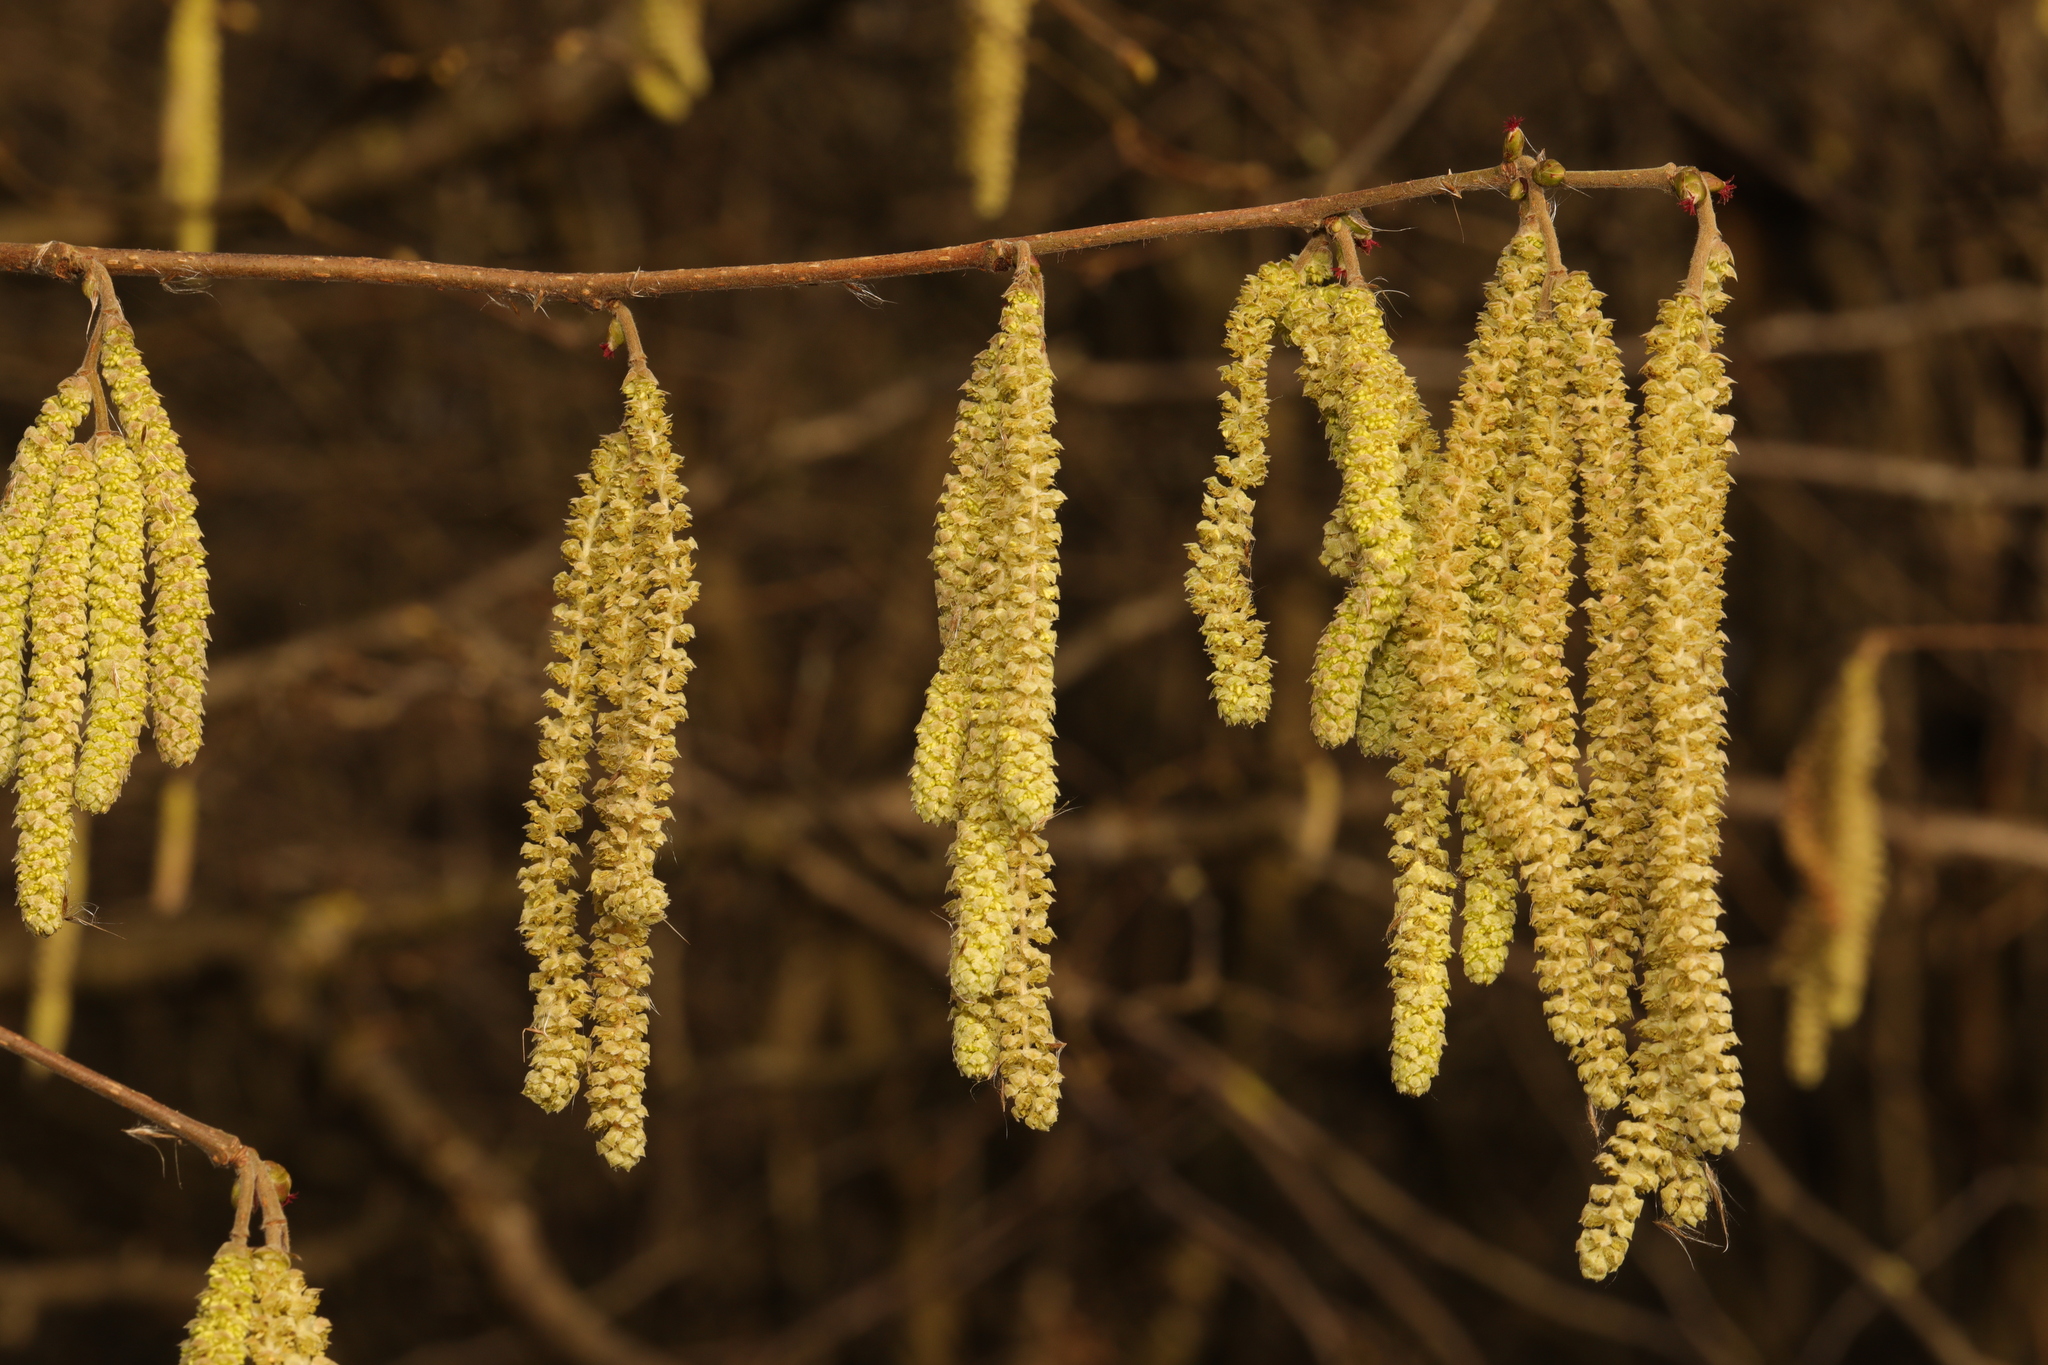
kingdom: Plantae
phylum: Tracheophyta
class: Magnoliopsida
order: Fagales
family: Betulaceae
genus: Corylus
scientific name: Corylus avellana
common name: European hazel
